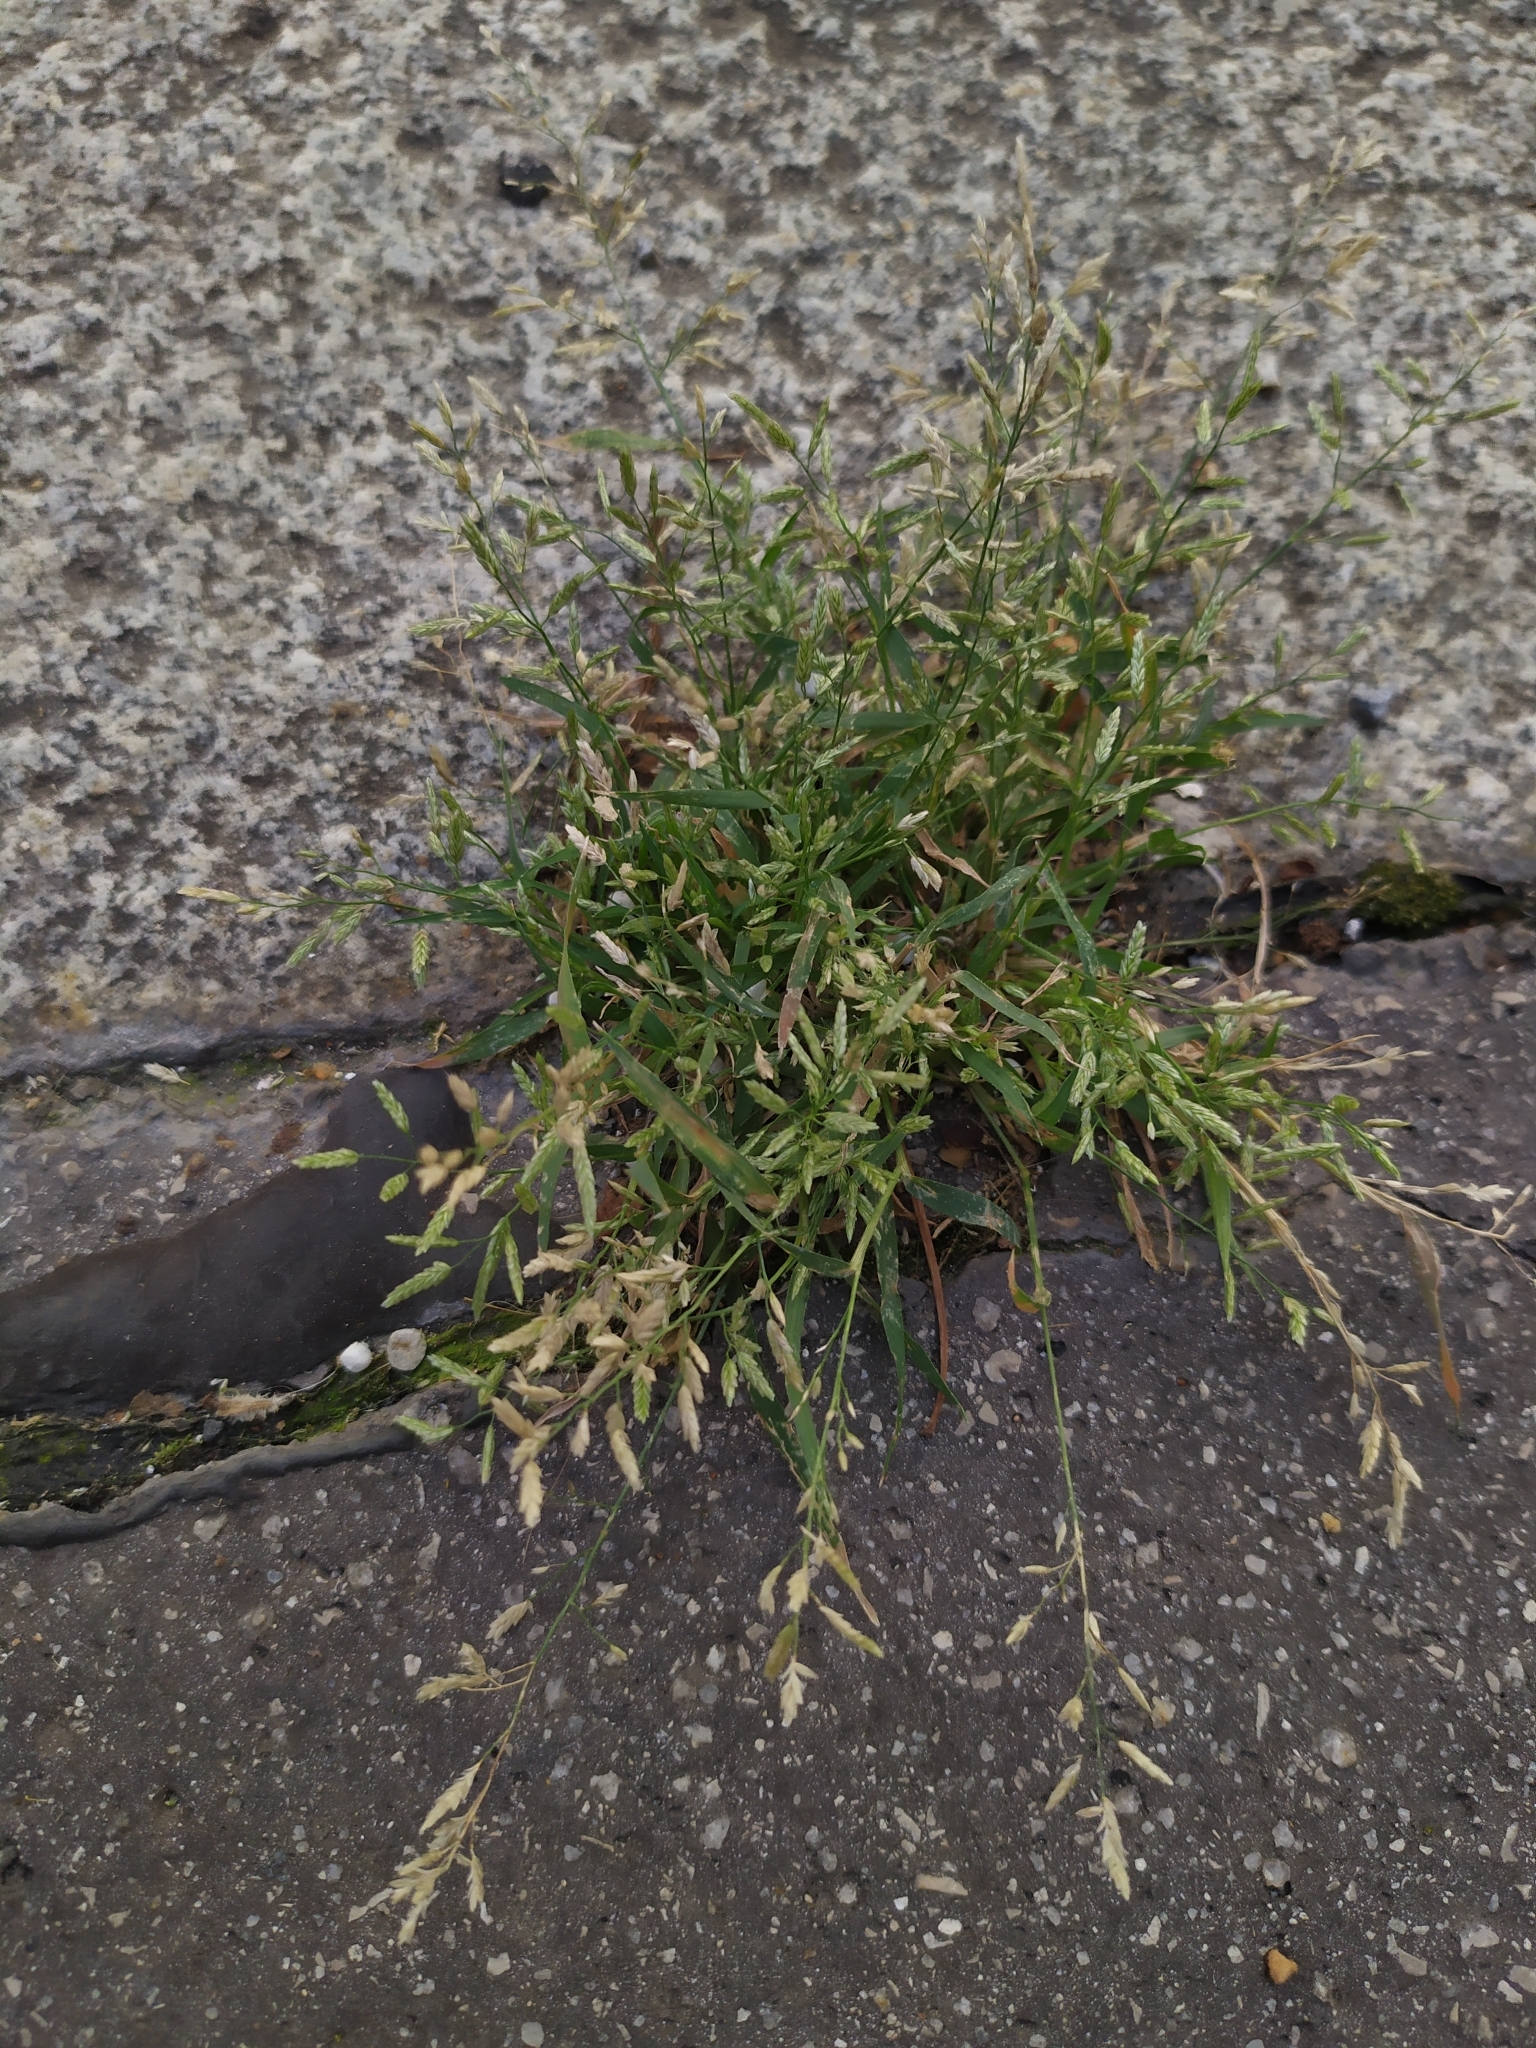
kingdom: Plantae
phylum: Tracheophyta
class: Liliopsida
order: Poales
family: Poaceae
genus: Eragrostis
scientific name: Eragrostis minor
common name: Small love-grass
